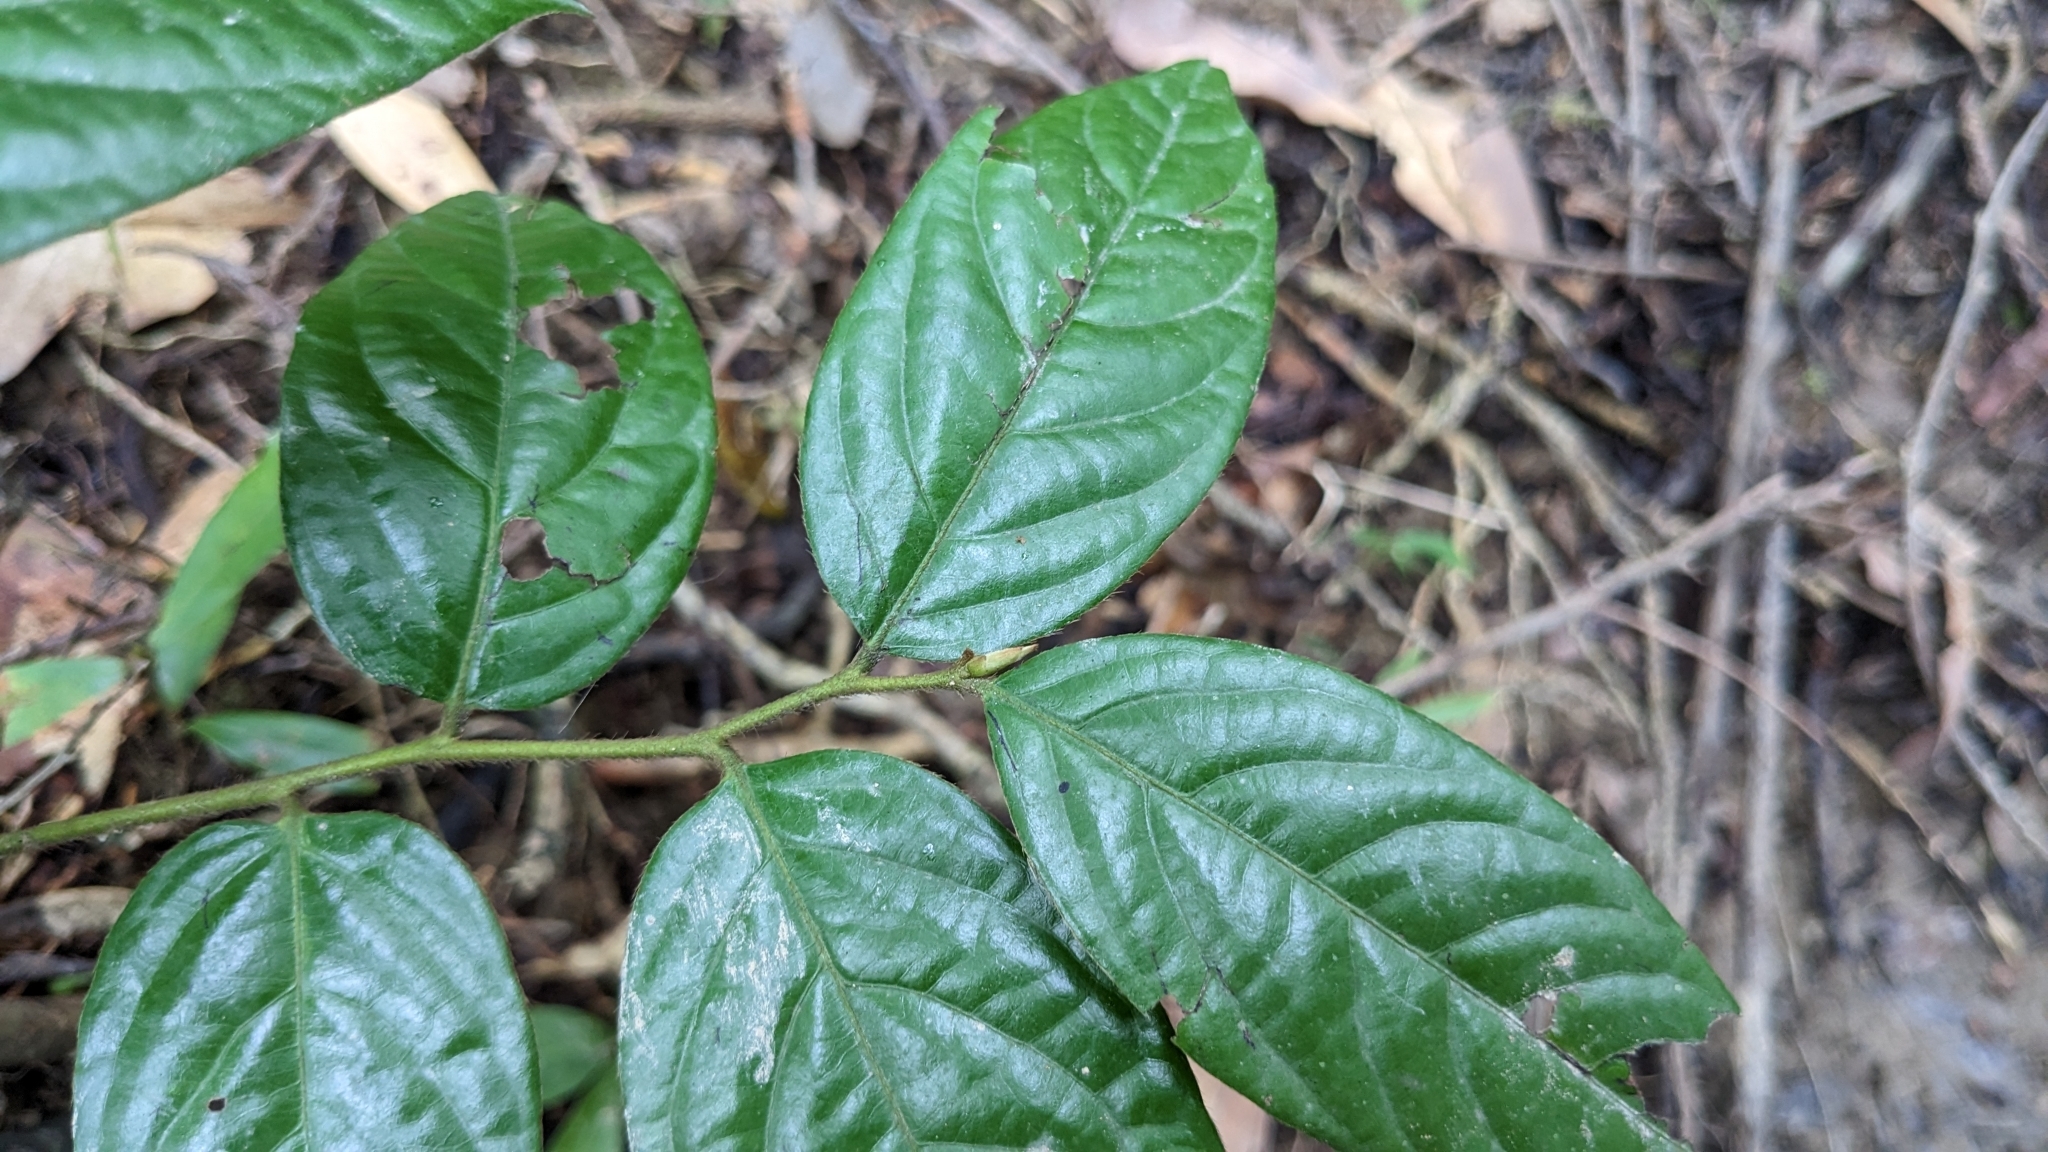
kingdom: Plantae
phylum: Tracheophyta
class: Magnoliopsida
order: Ericales
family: Ebenaceae
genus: Diospyros
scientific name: Diospyros eriantha
